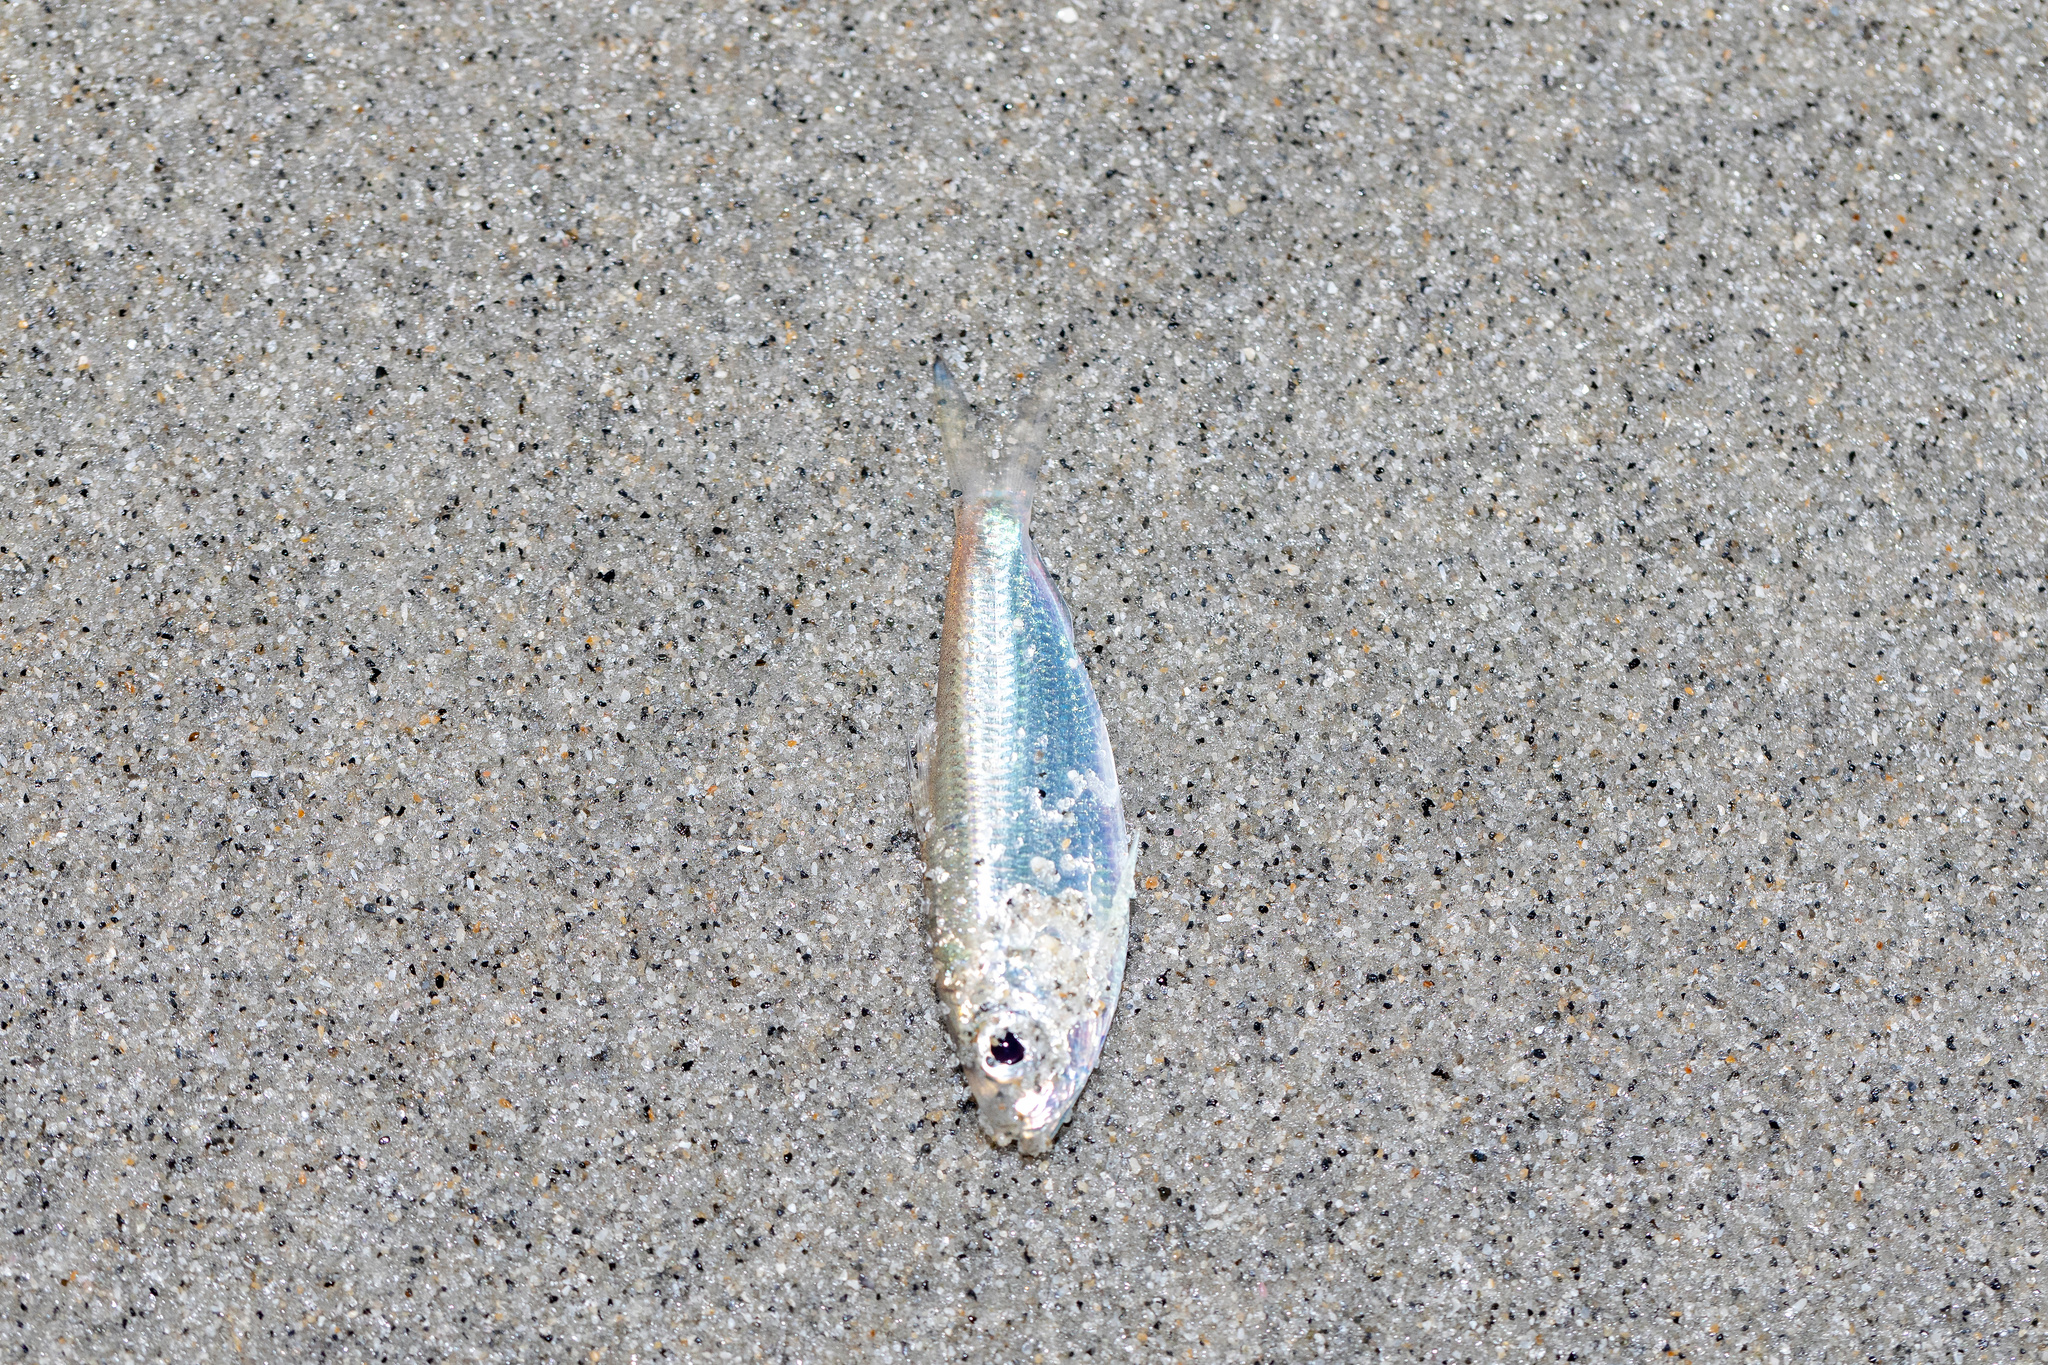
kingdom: Animalia
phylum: Chordata
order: Clupeiformes
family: Clupeidae
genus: Harengula
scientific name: Harengula jaguana
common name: Scaled sardine
